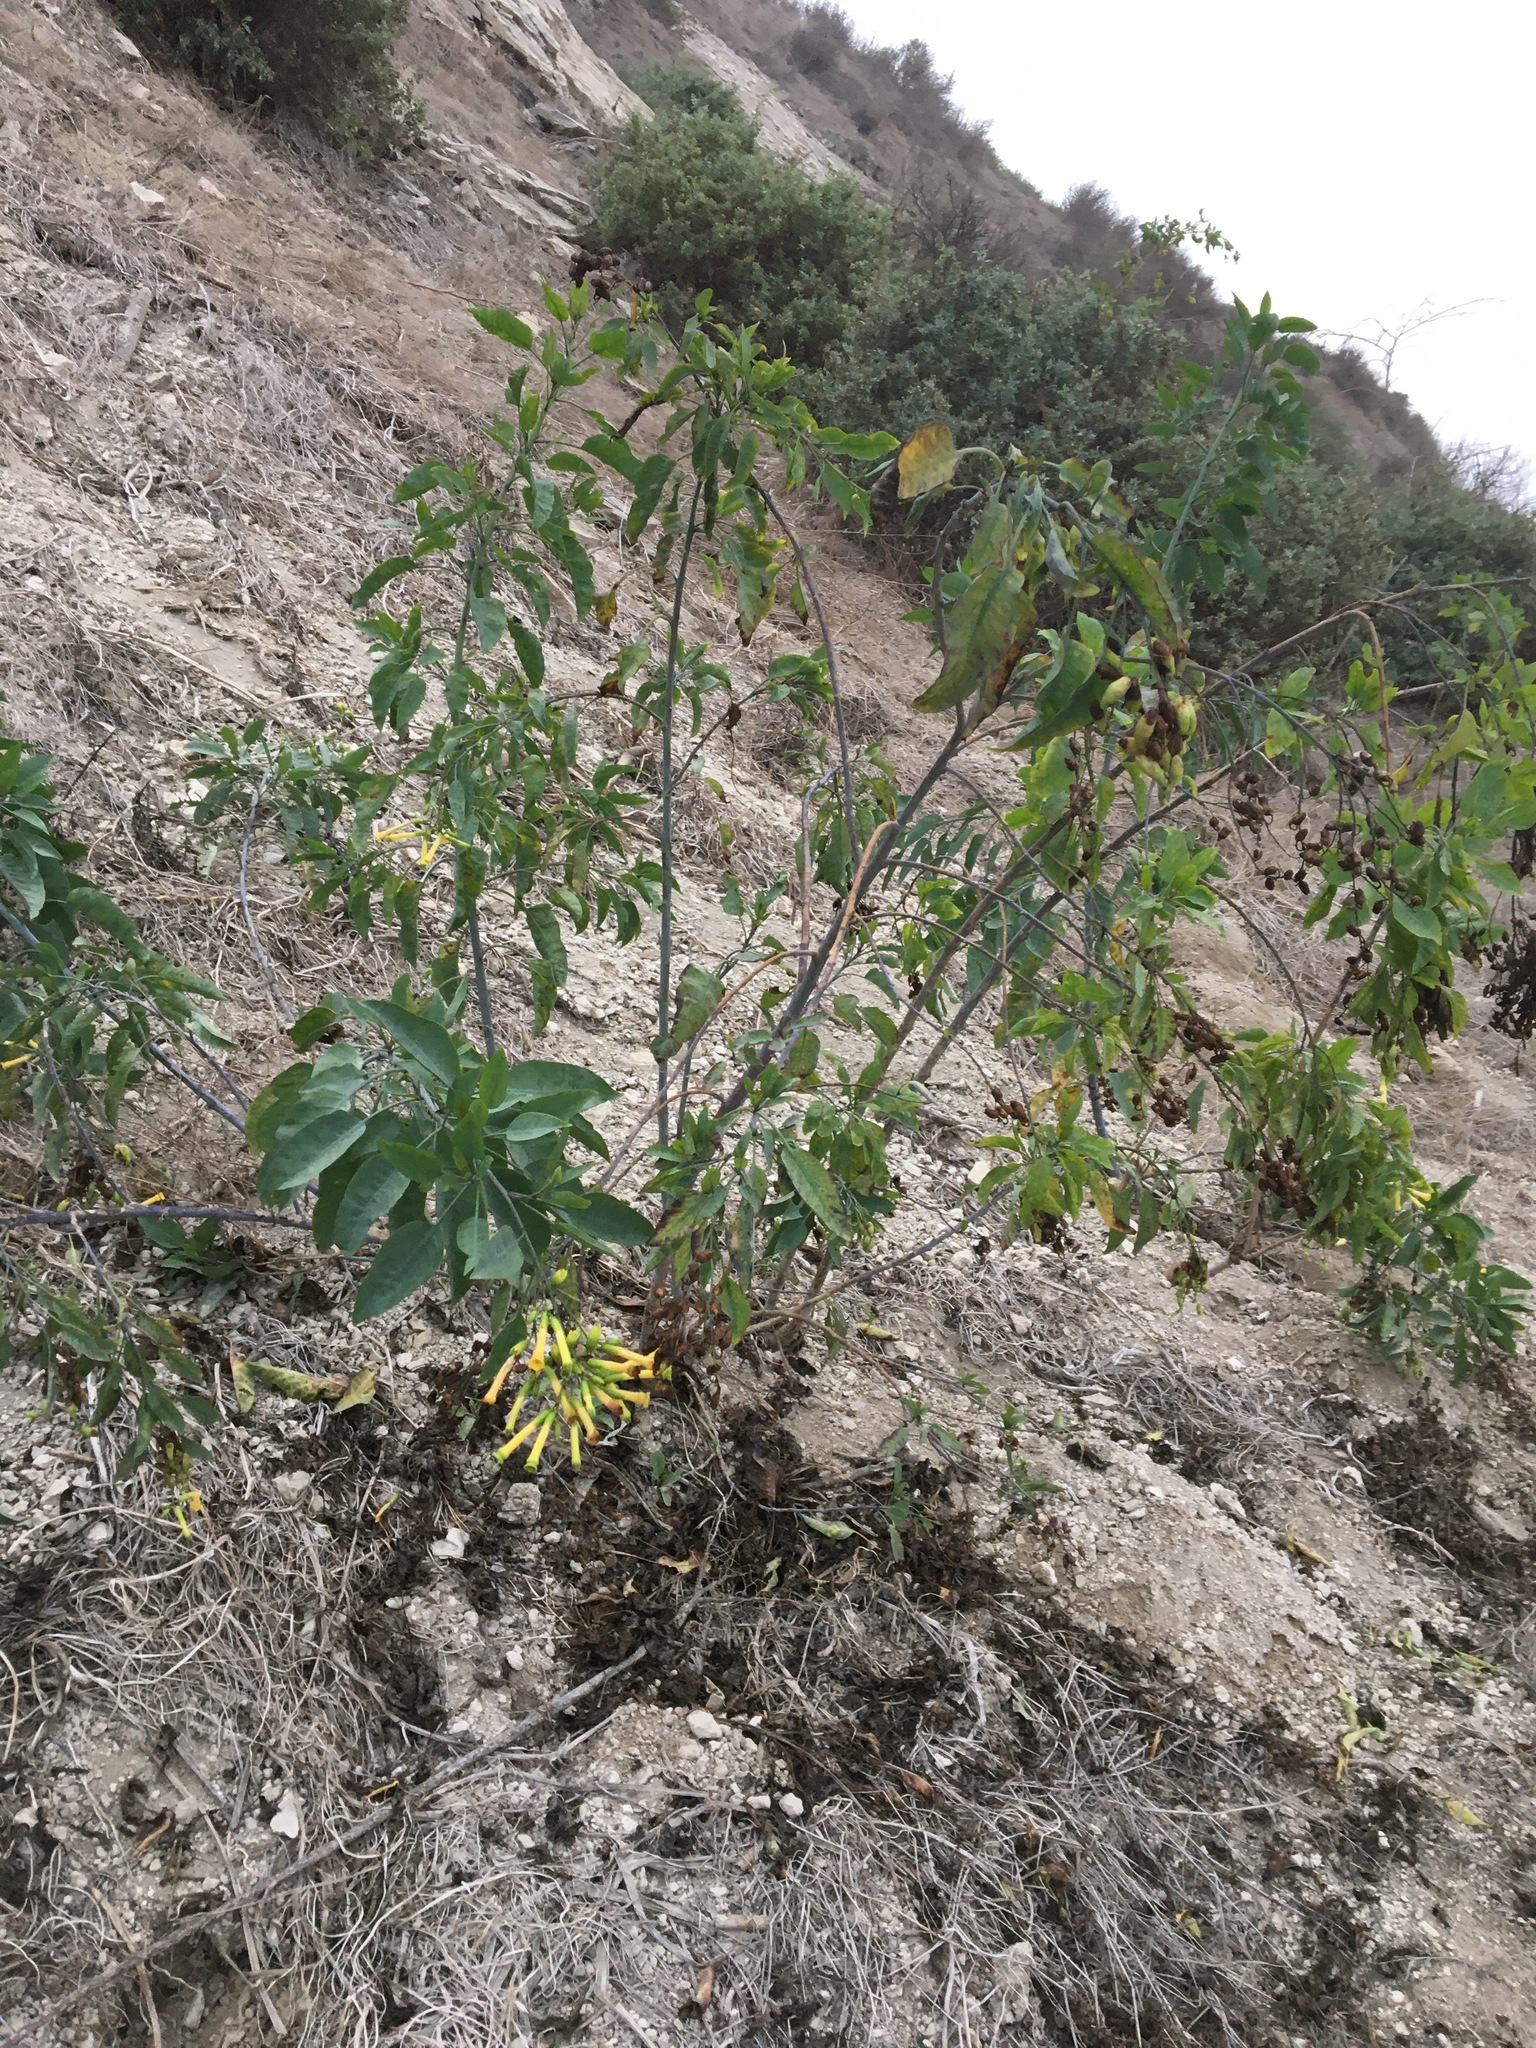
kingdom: Plantae
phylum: Tracheophyta
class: Magnoliopsida
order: Solanales
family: Solanaceae
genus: Nicotiana
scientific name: Nicotiana glauca
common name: Tree tobacco
